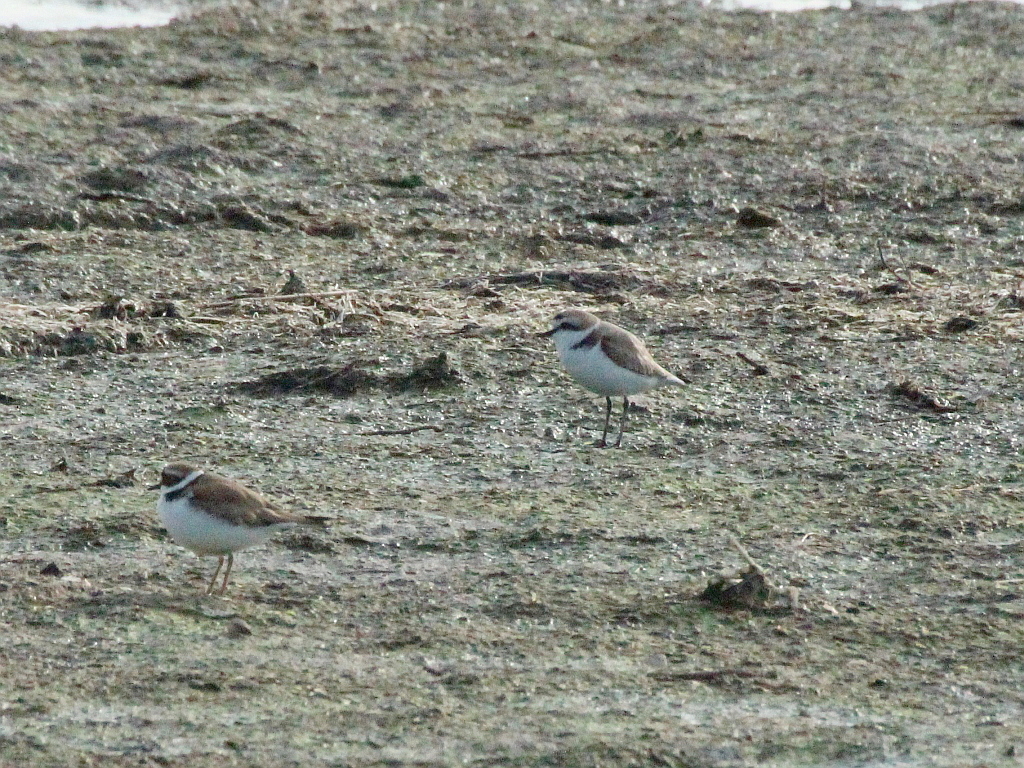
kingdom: Animalia
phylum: Chordata
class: Aves
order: Charadriiformes
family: Charadriidae
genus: Charadrius
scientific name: Charadrius alexandrinus
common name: Kentish plover
